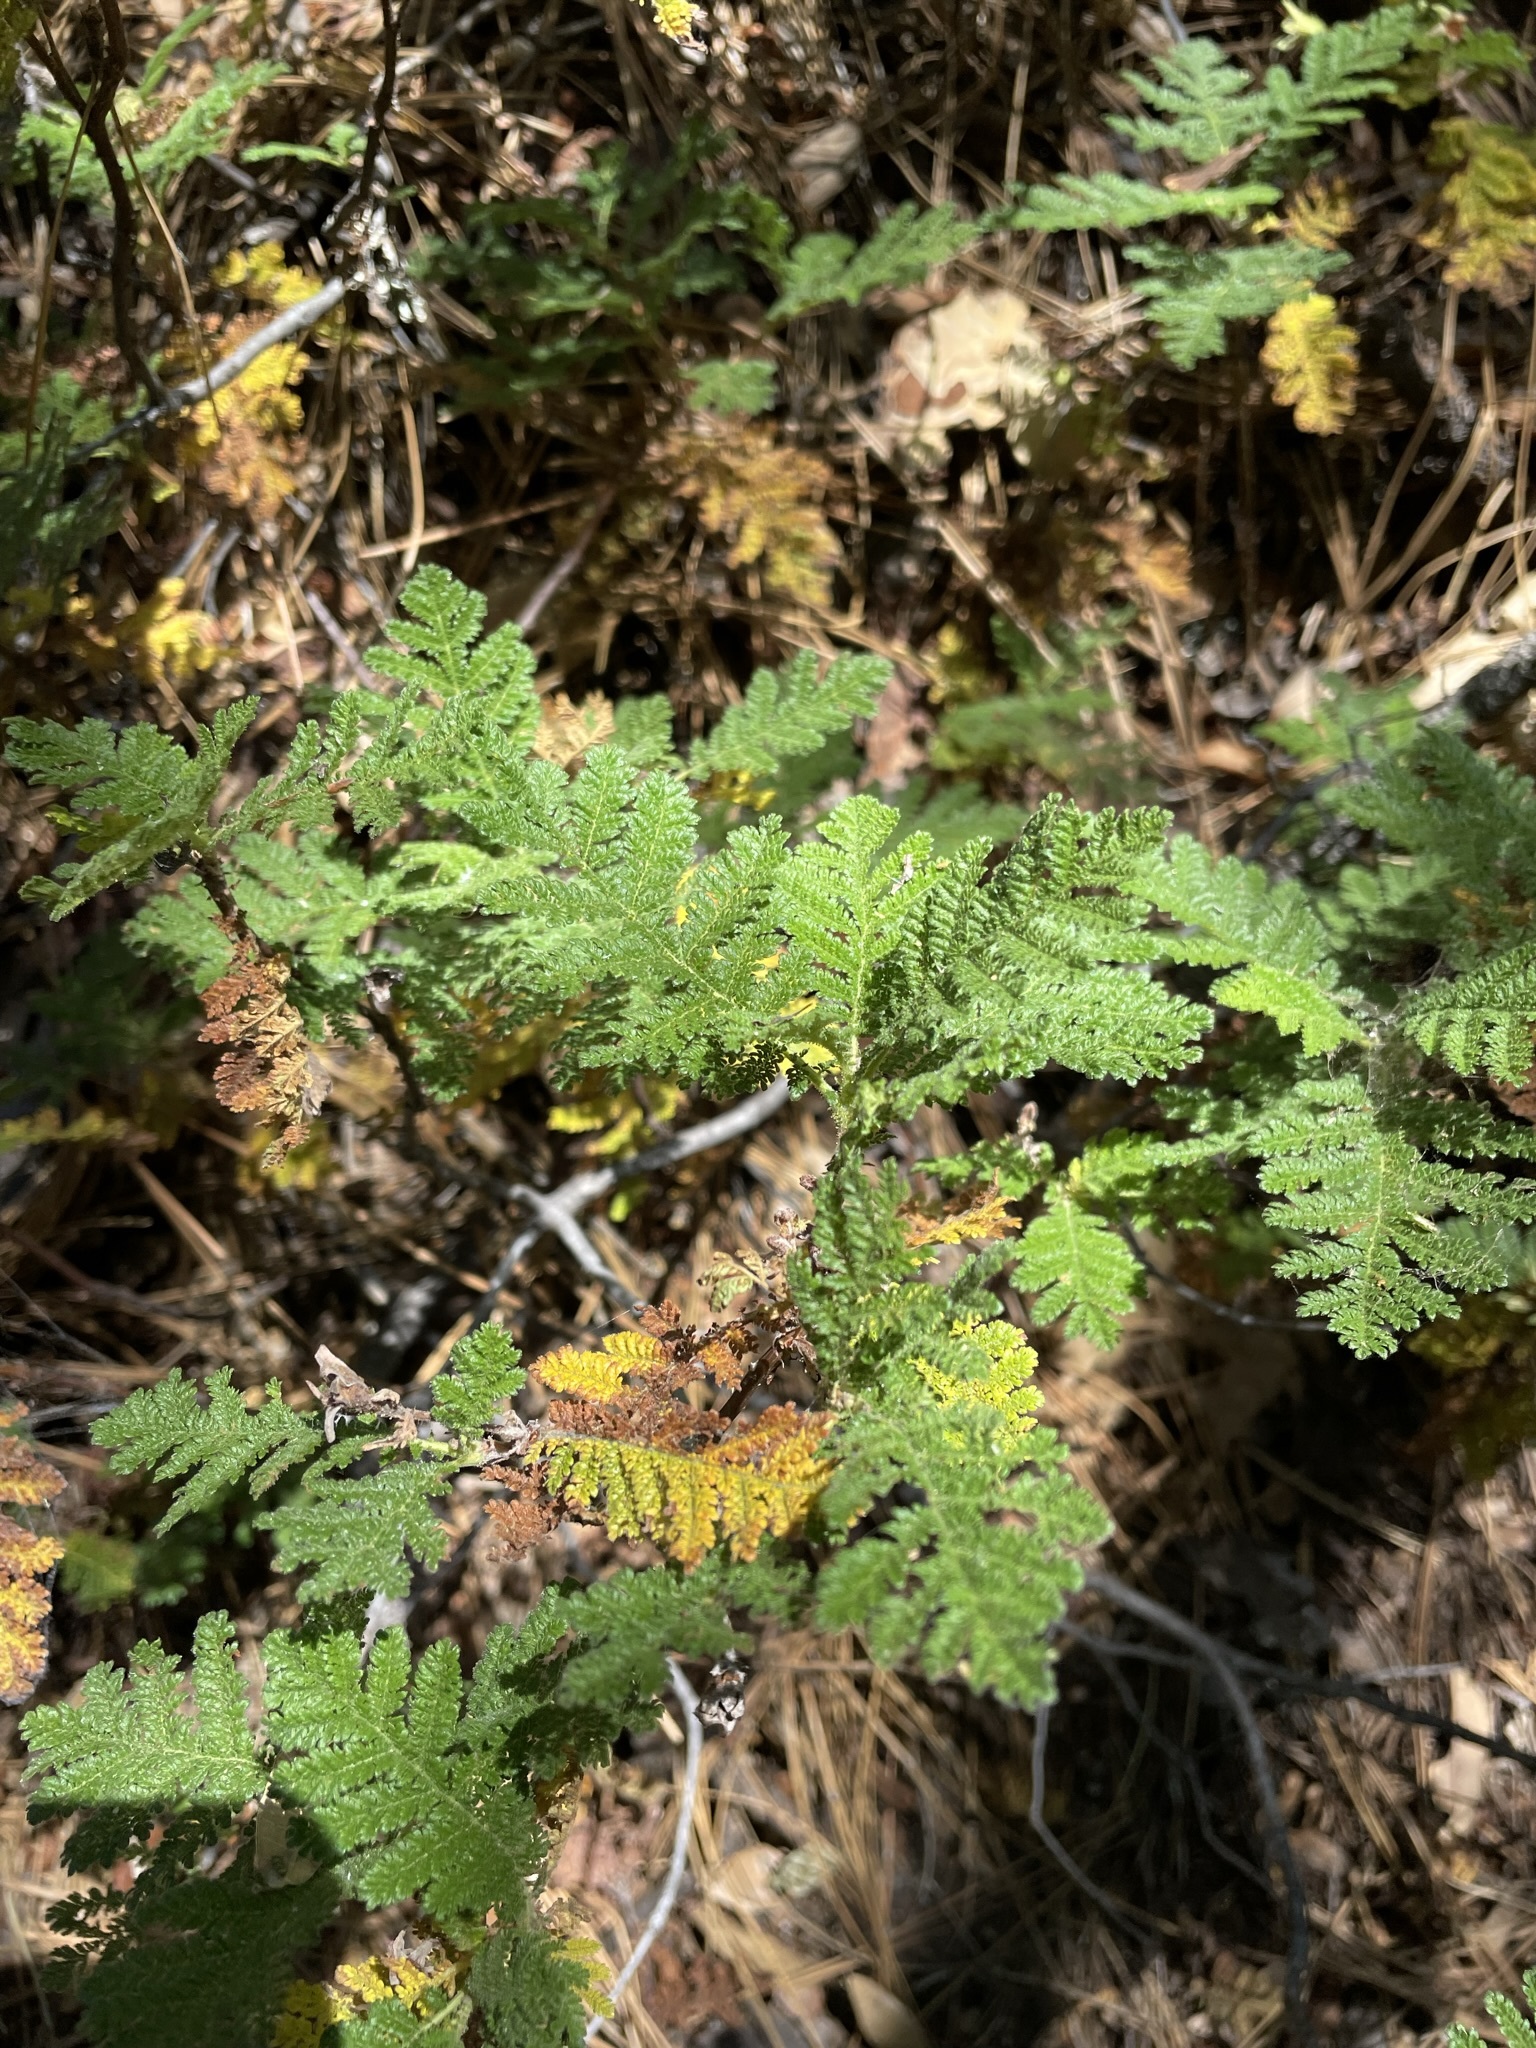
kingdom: Plantae
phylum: Tracheophyta
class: Magnoliopsida
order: Rosales
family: Rosaceae
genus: Chamaebatia
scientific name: Chamaebatia foliolosa
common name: Mountain misery
